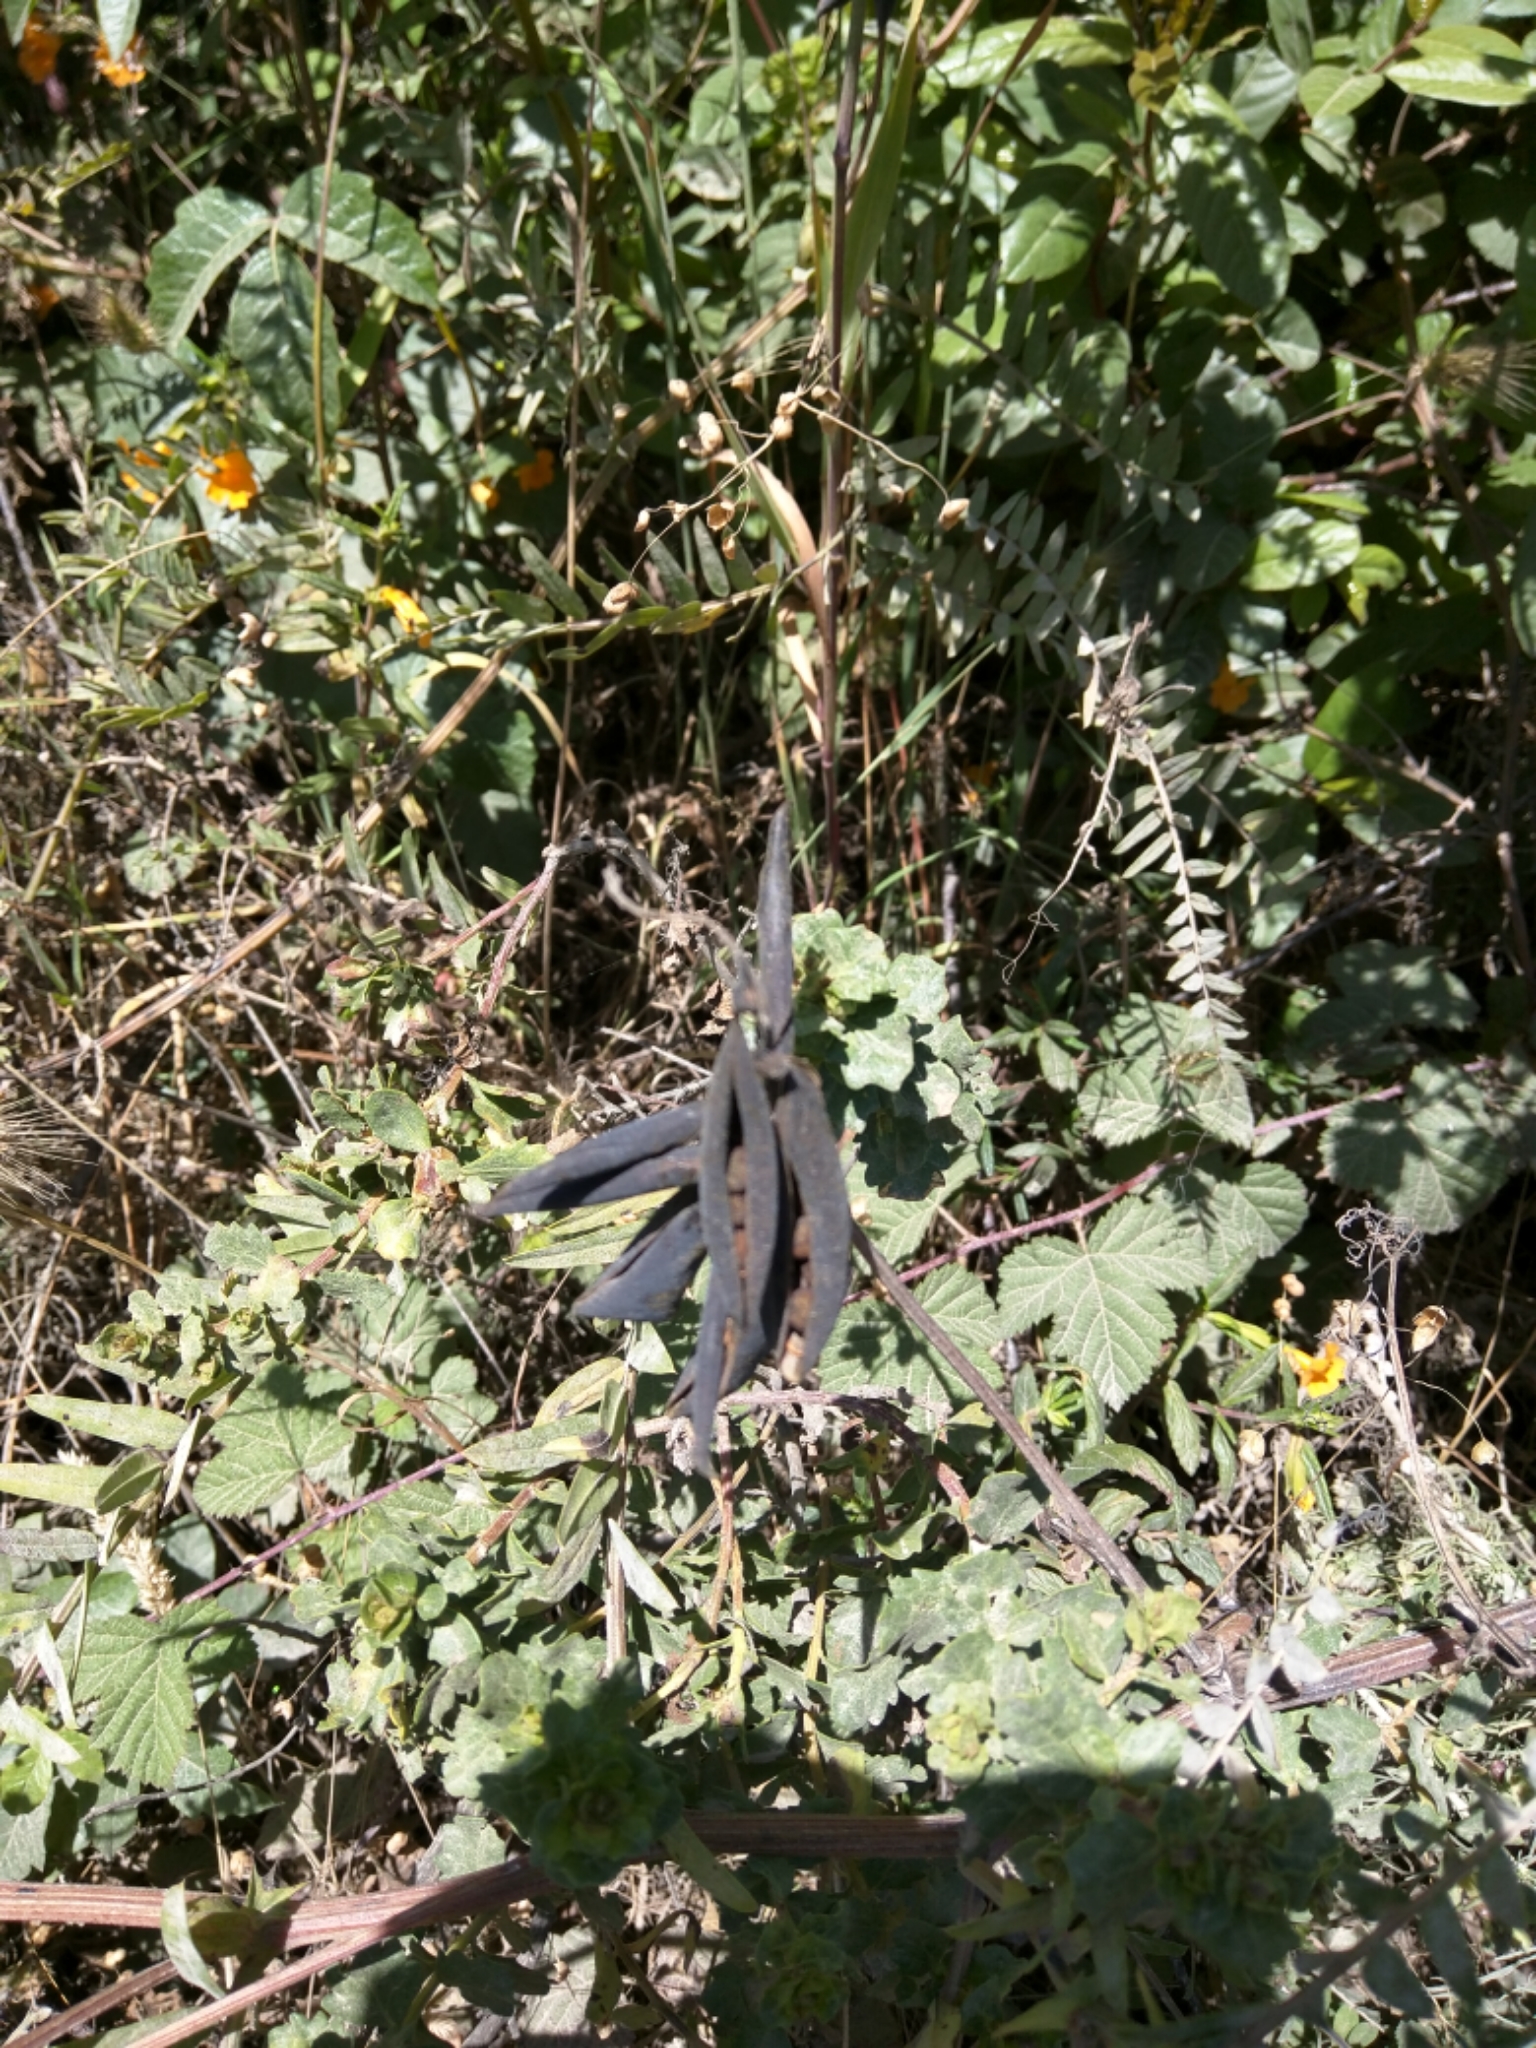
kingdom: Plantae
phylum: Tracheophyta
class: Magnoliopsida
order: Fabales
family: Fabaceae
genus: Vicia
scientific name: Vicia
